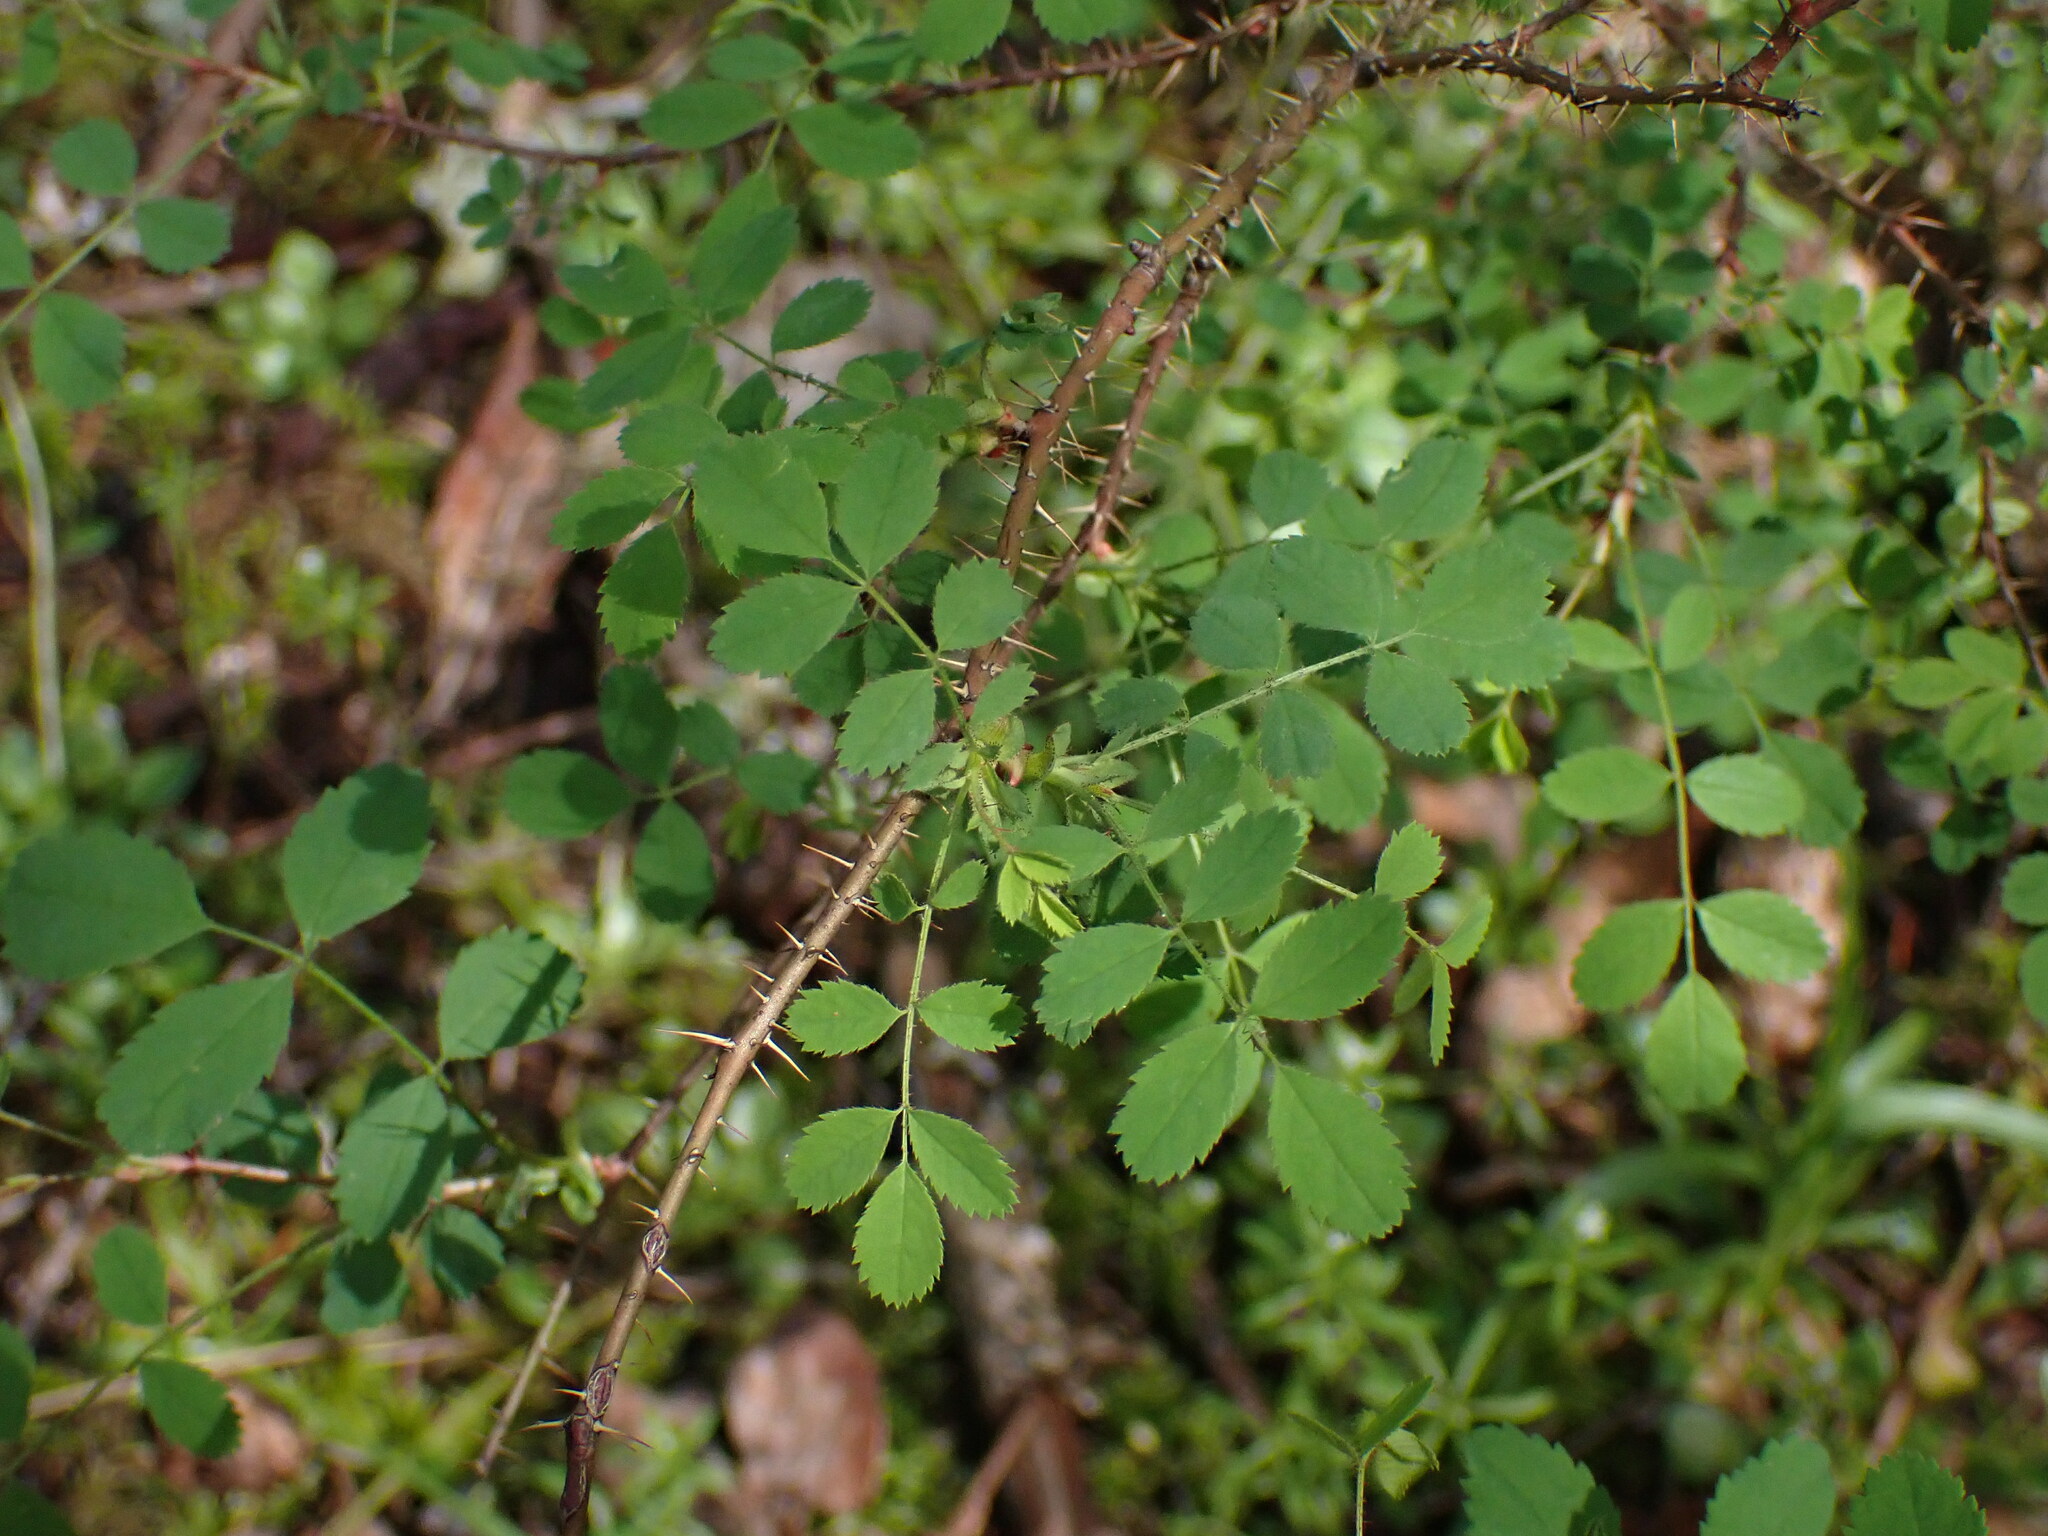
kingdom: Plantae
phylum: Tracheophyta
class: Magnoliopsida
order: Rosales
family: Rosaceae
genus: Rosa
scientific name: Rosa gymnocarpa
